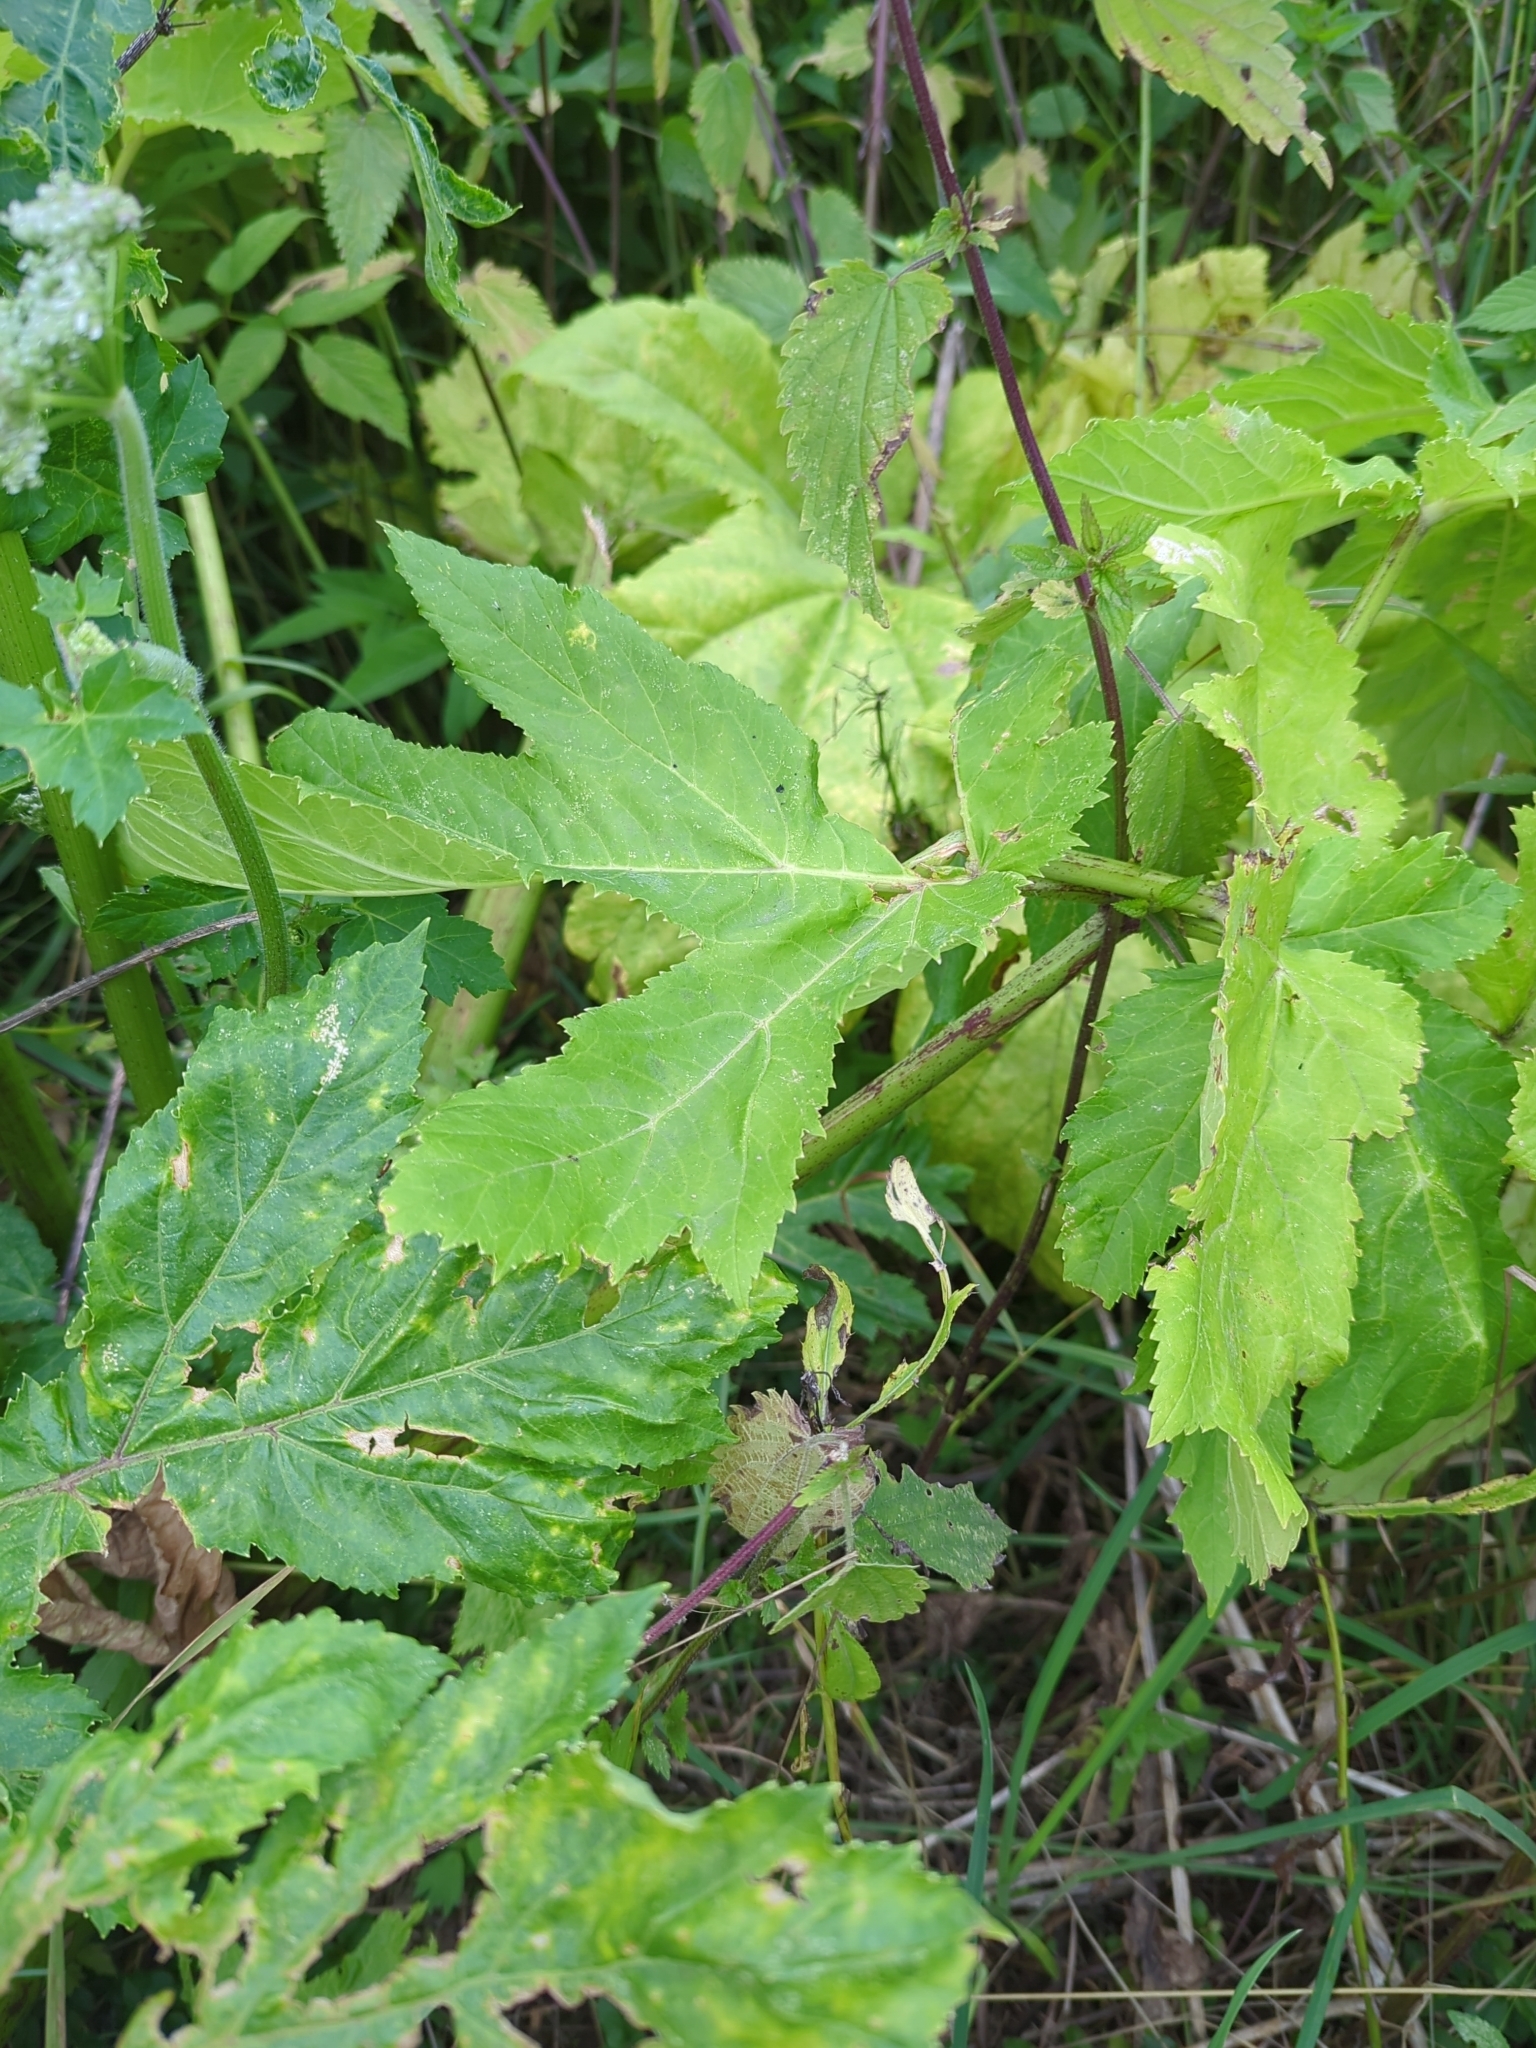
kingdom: Plantae
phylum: Tracheophyta
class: Magnoliopsida
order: Apiales
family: Apiaceae
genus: Heracleum
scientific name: Heracleum sosnowskyi
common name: Sosnowsky's hogweed
